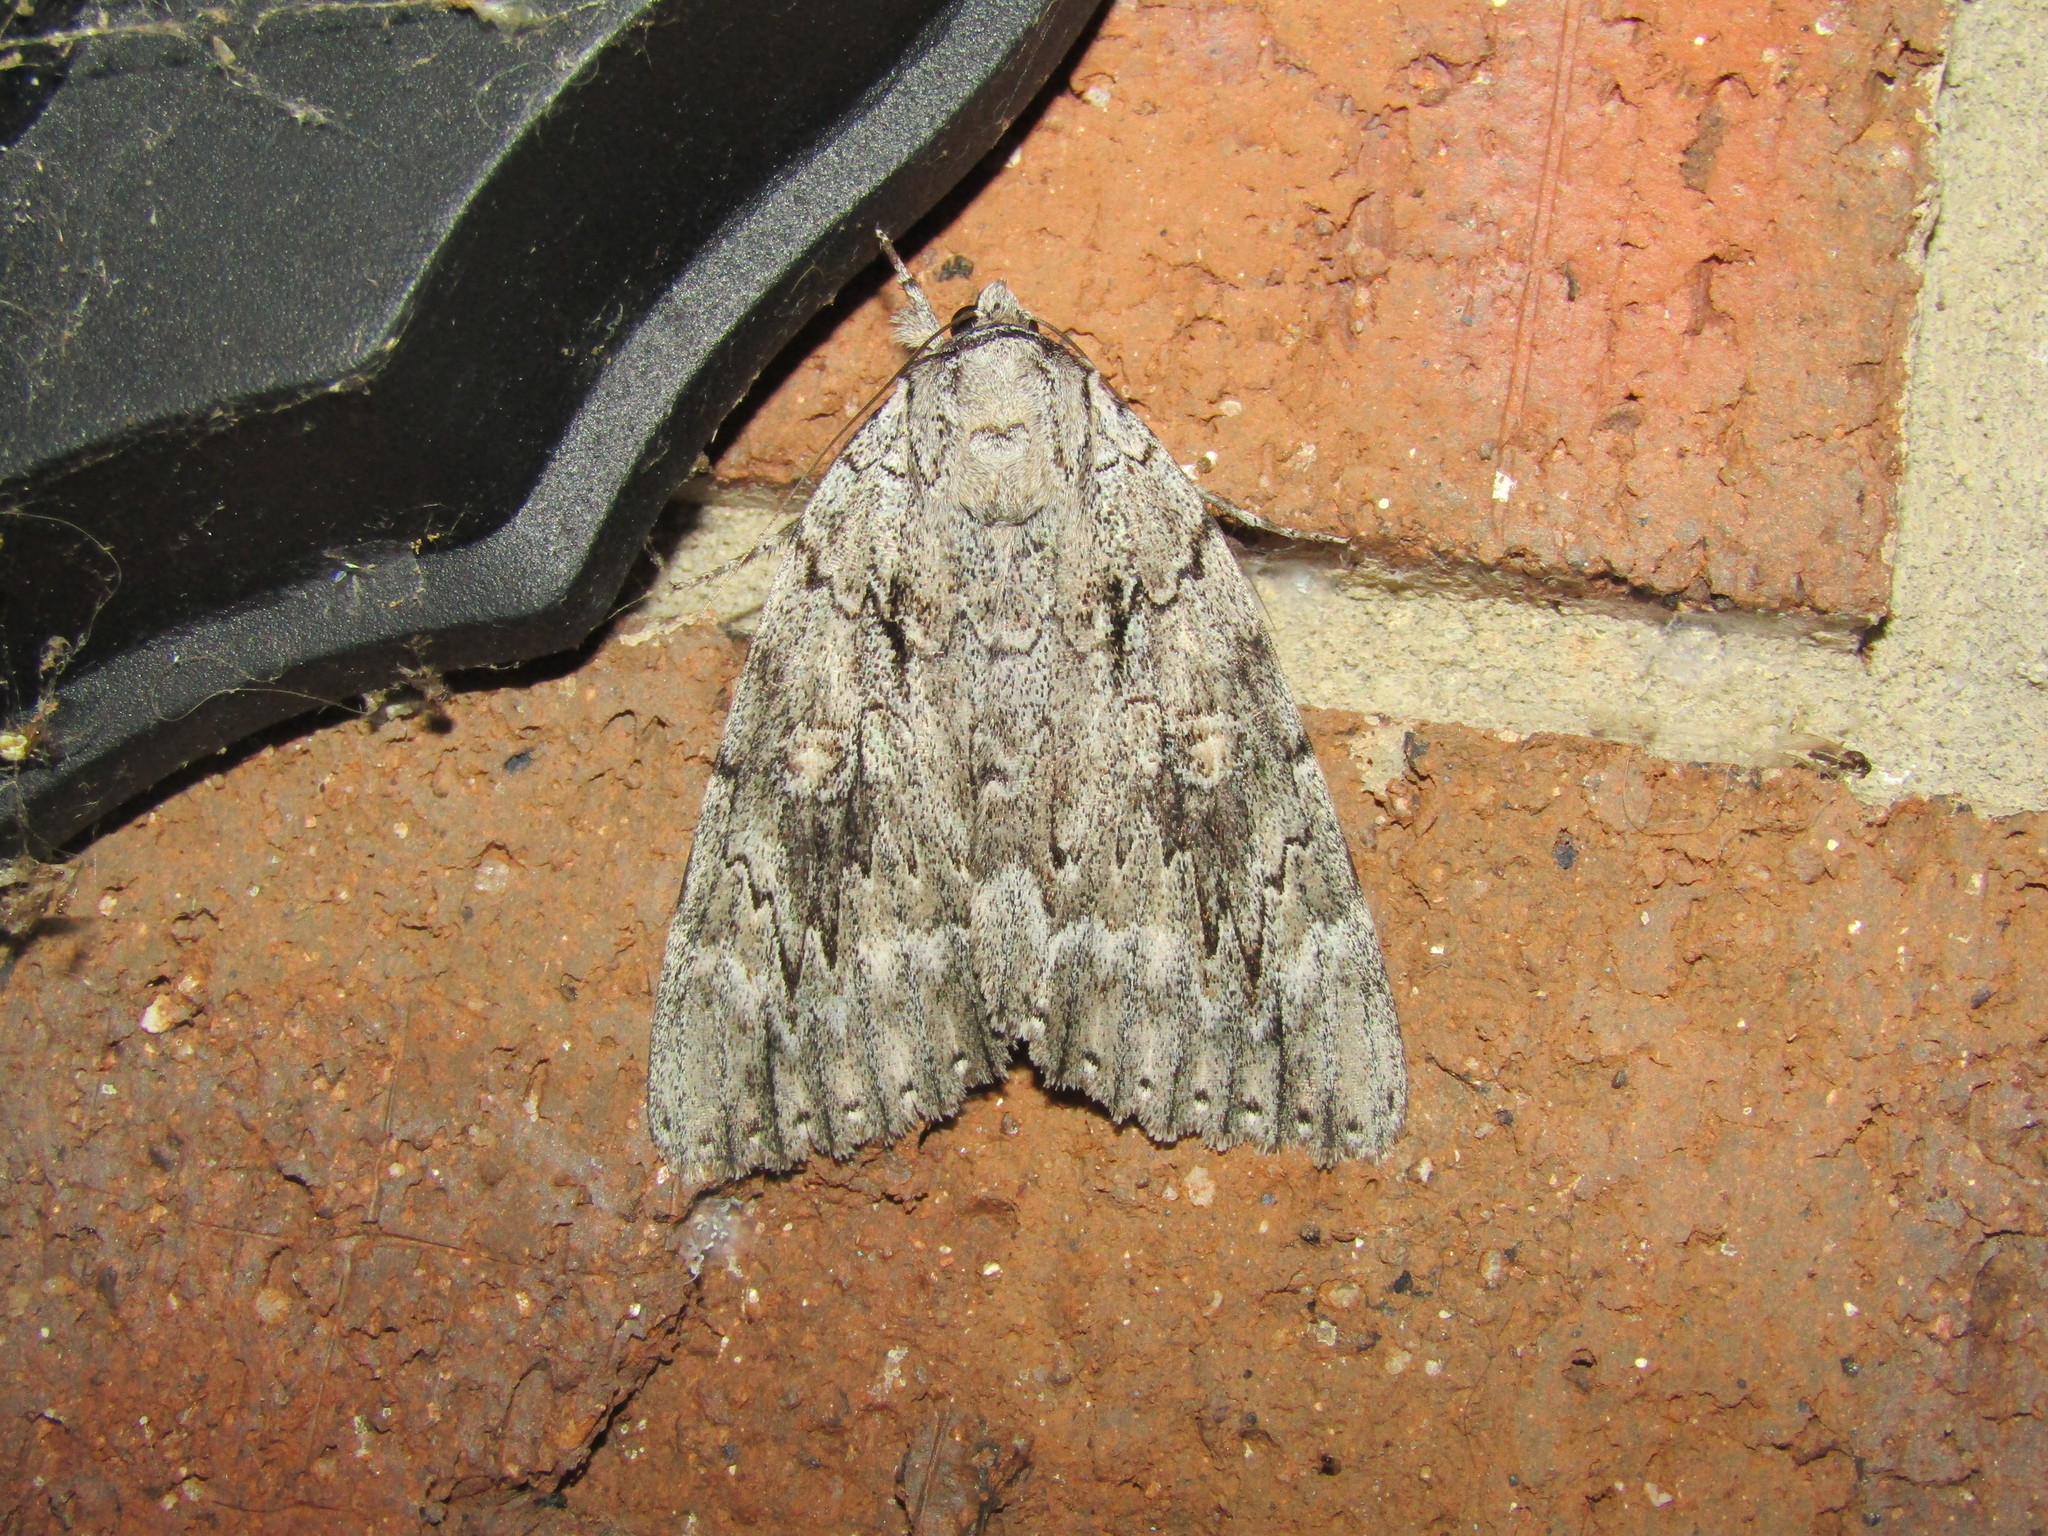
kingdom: Animalia
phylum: Arthropoda
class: Insecta
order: Lepidoptera
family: Erebidae
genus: Catocala
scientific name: Catocala robinsoni
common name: Robinson's underwing
